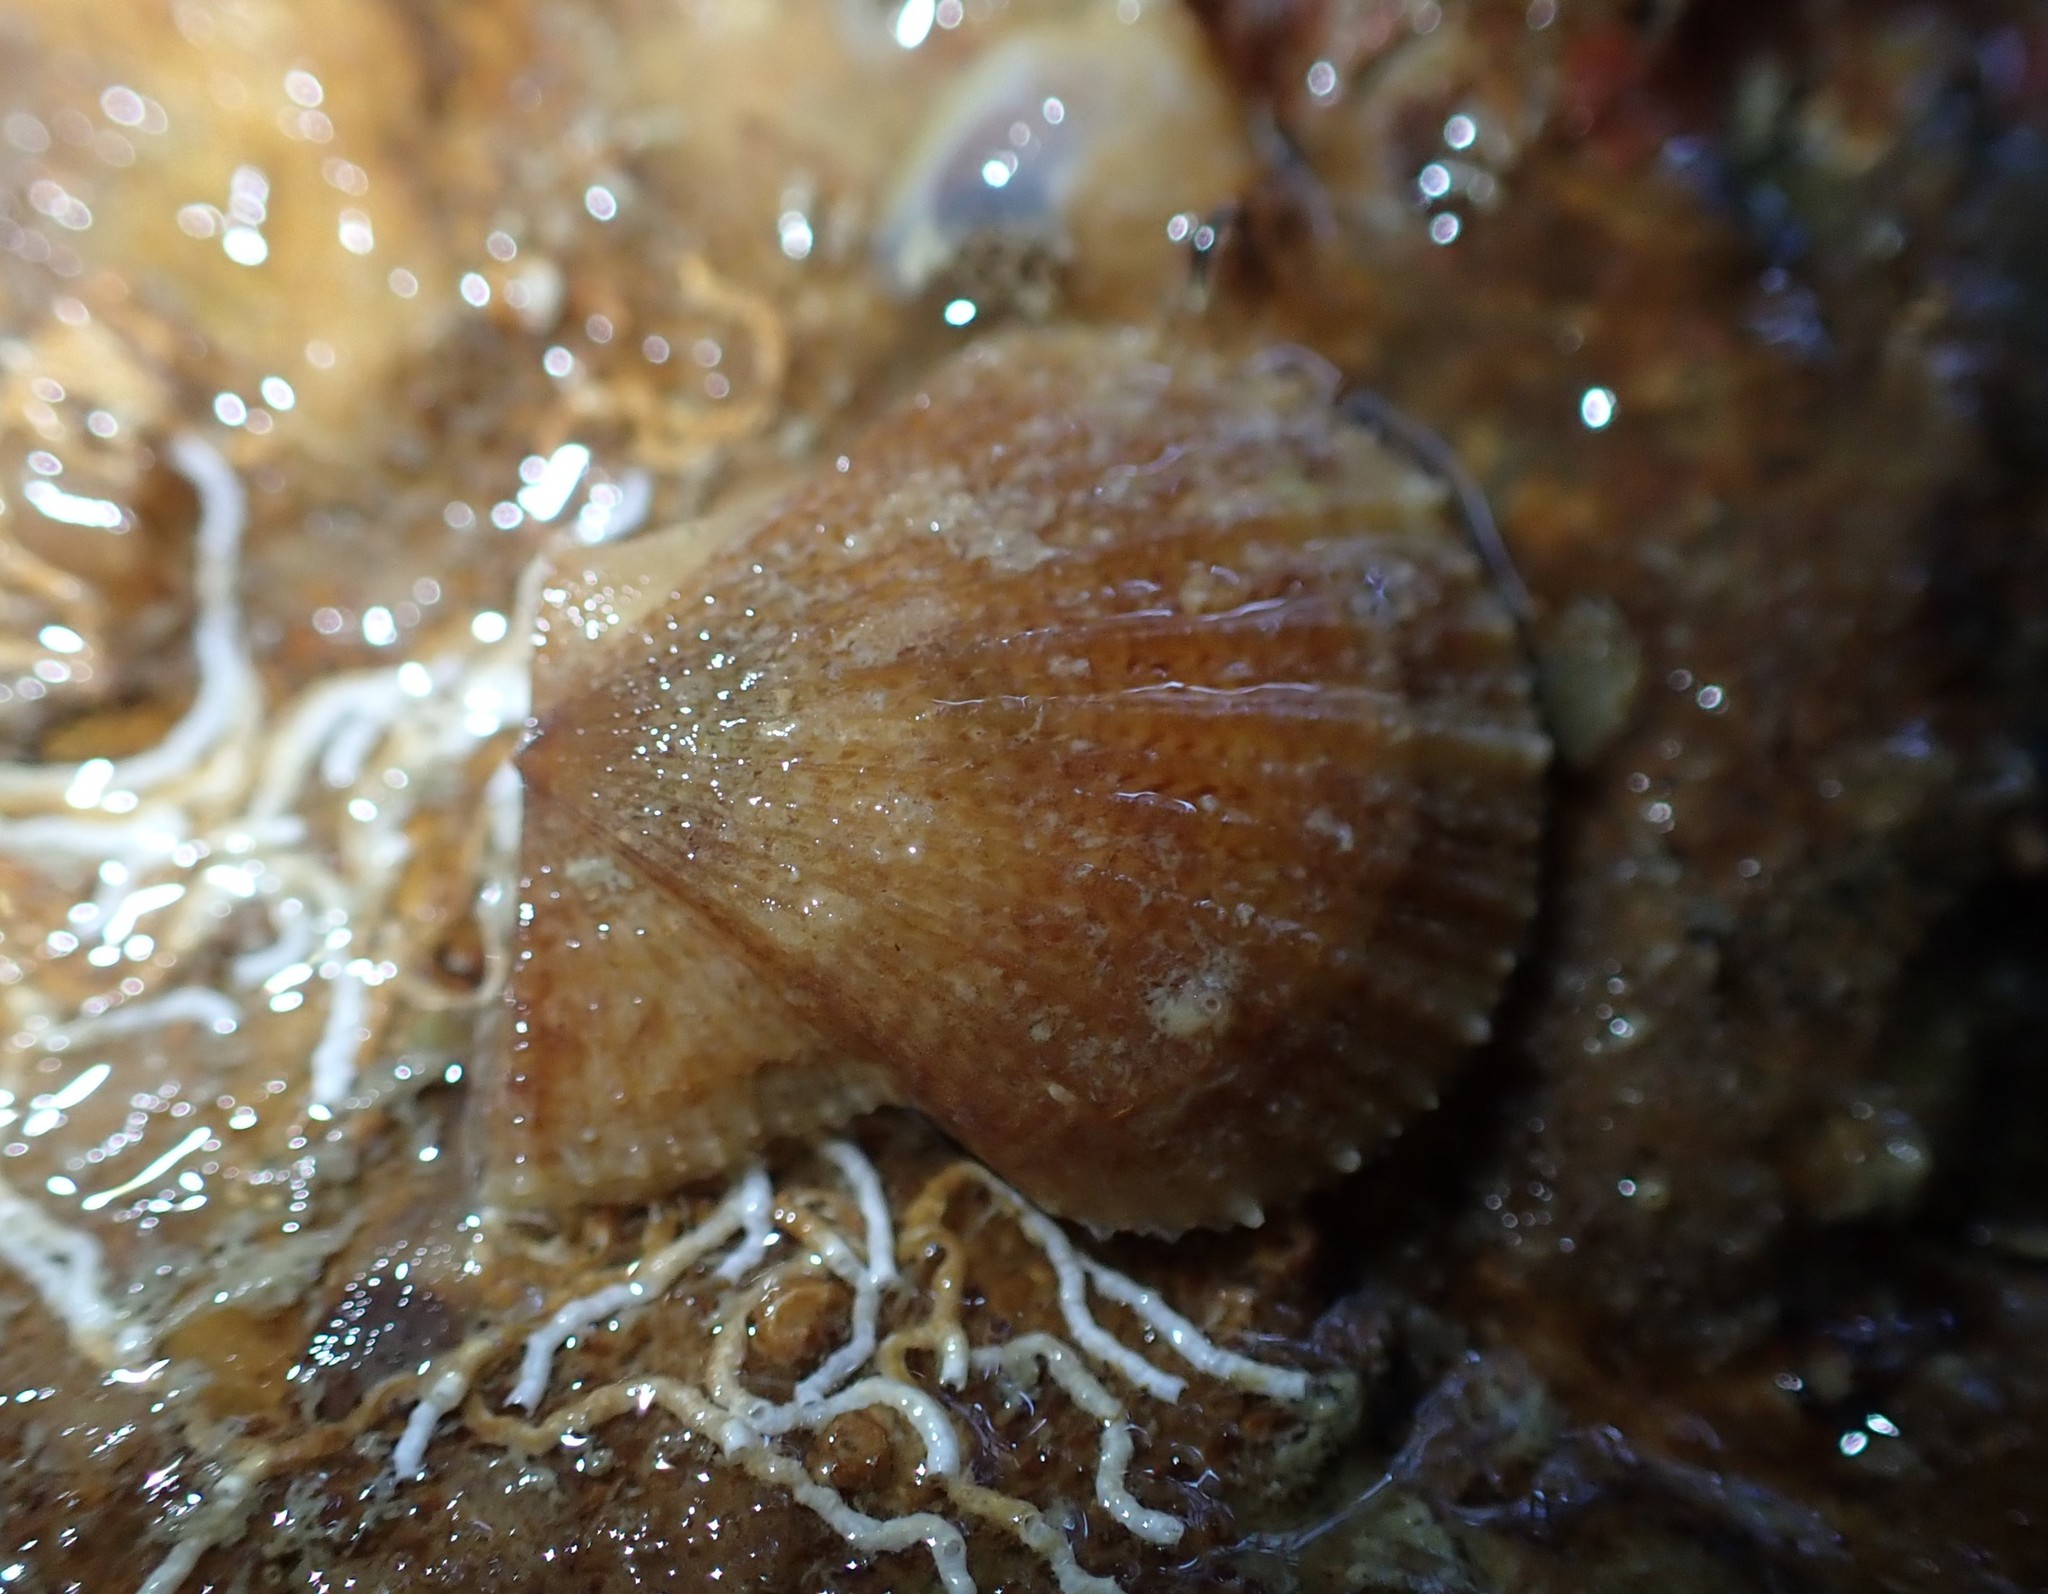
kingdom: Animalia
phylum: Mollusca
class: Bivalvia
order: Pectinida
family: Pectinidae
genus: Talochlamys
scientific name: Talochlamys zelandiae
